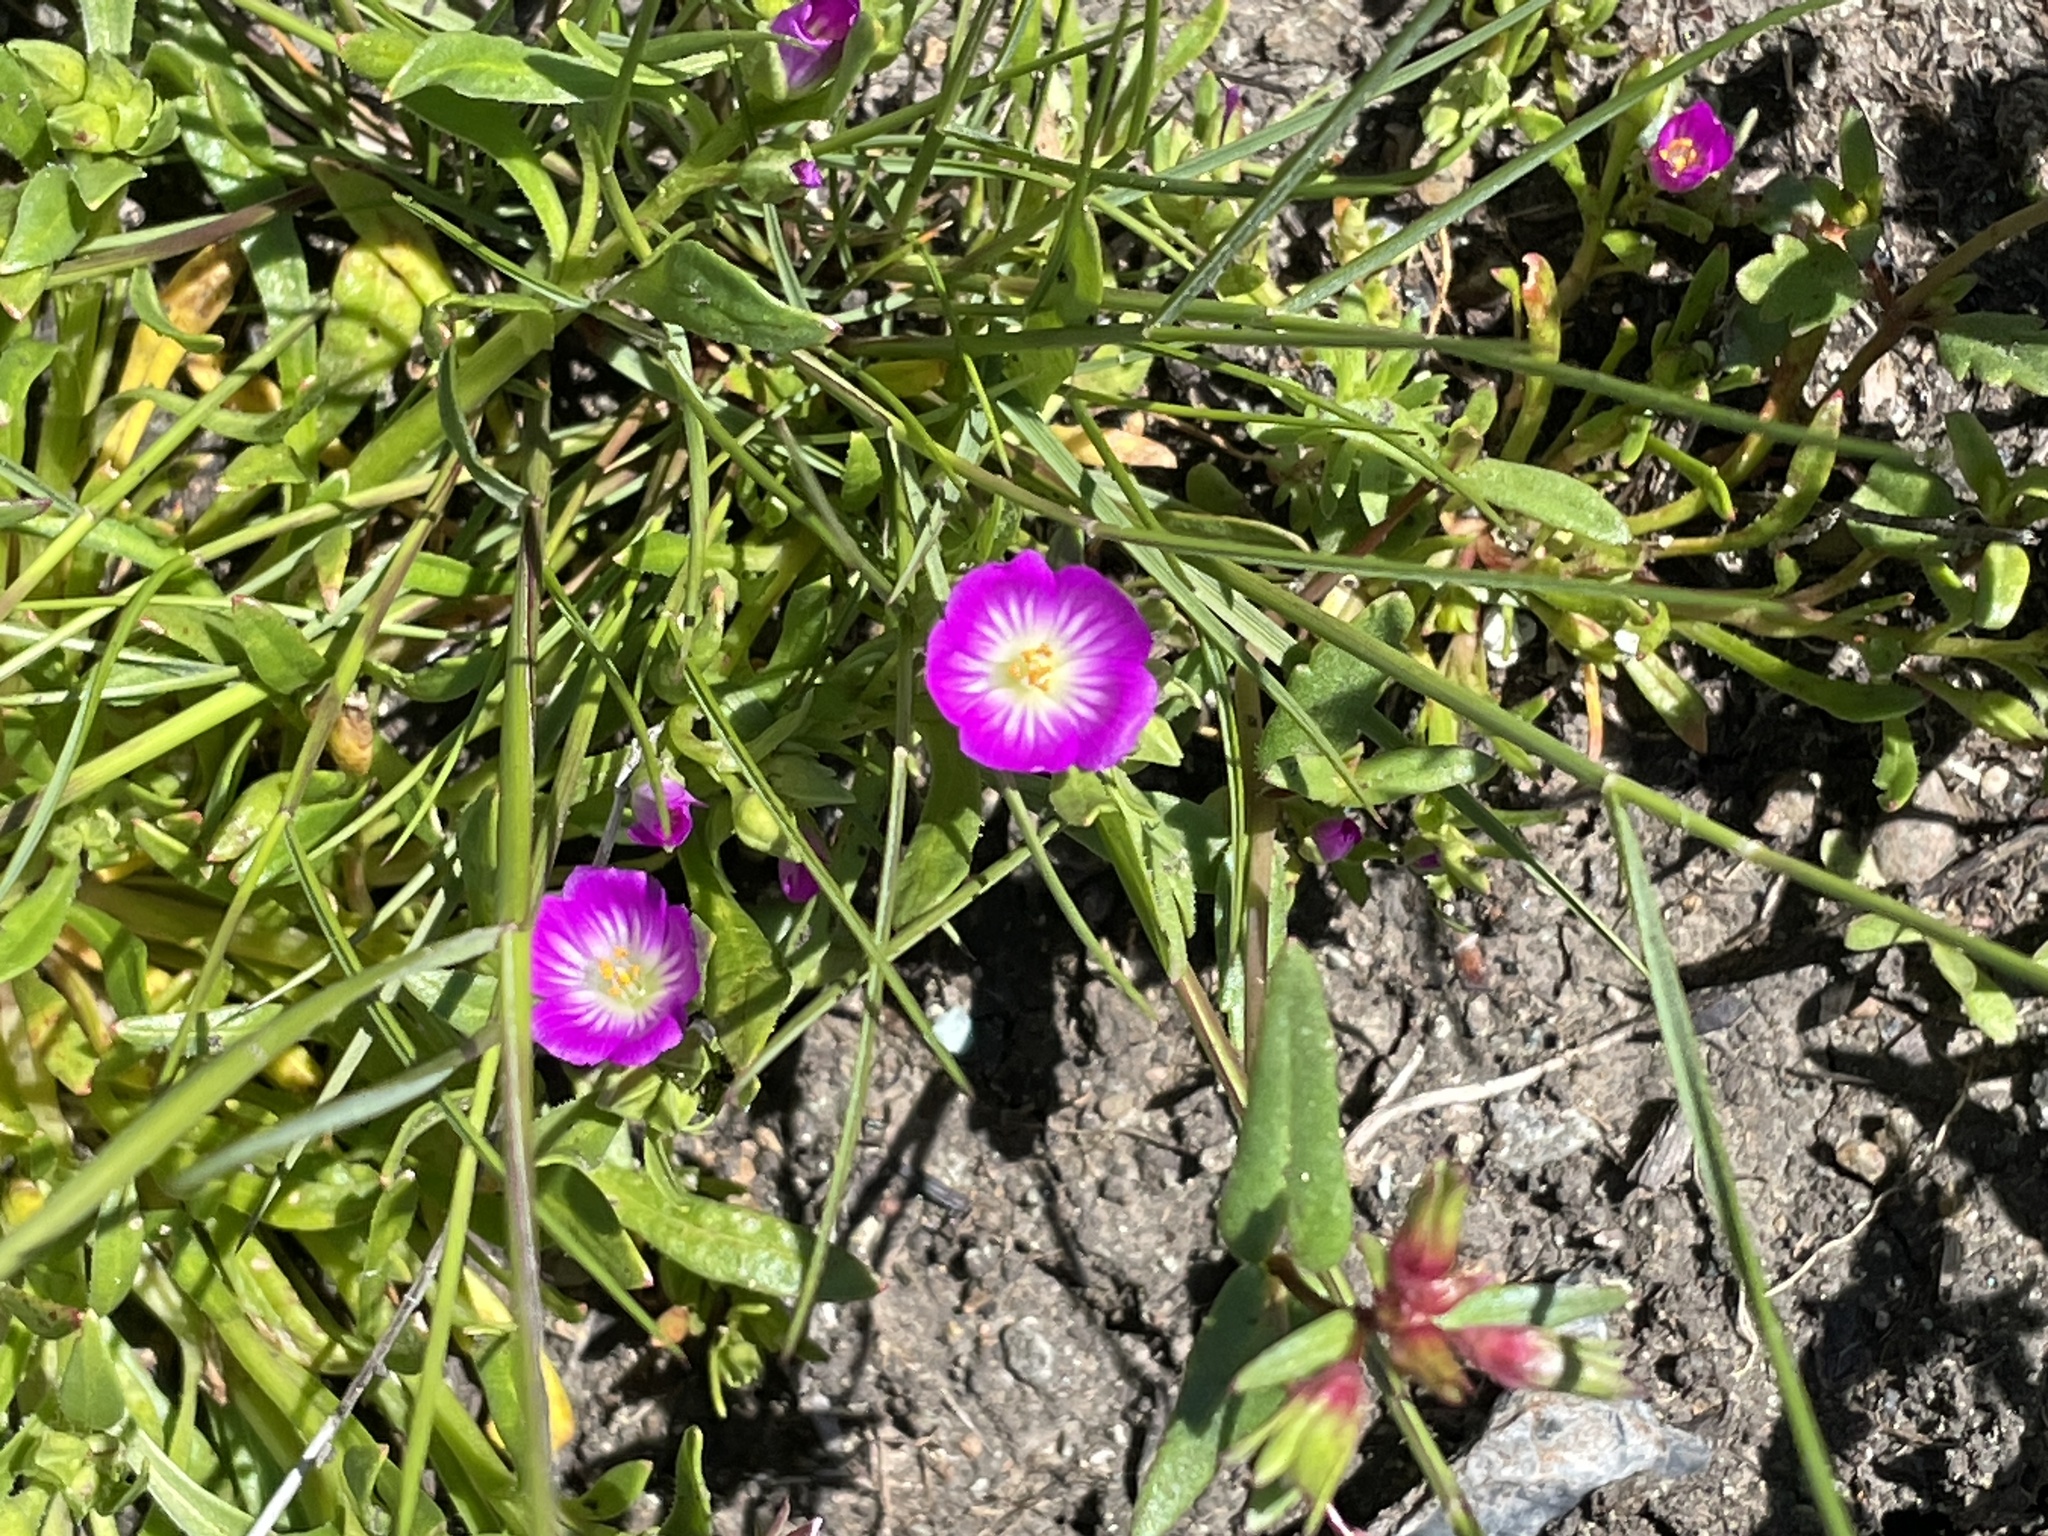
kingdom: Plantae
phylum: Tracheophyta
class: Magnoliopsida
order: Caryophyllales
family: Montiaceae
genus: Calandrinia
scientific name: Calandrinia menziesii
